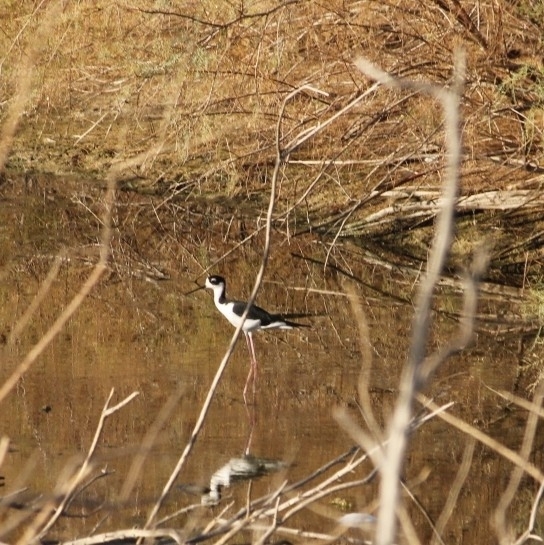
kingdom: Animalia
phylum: Chordata
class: Aves
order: Charadriiformes
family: Recurvirostridae
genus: Himantopus
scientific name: Himantopus mexicanus
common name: Black-necked stilt
